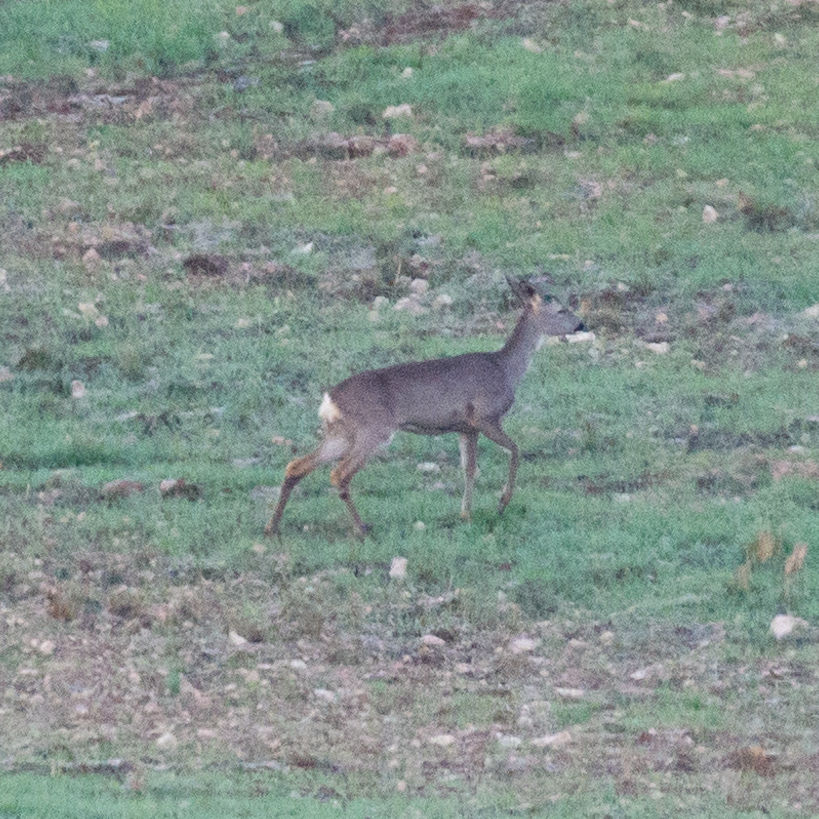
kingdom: Animalia
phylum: Chordata
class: Mammalia
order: Artiodactyla
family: Cervidae
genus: Capreolus
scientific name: Capreolus capreolus
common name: Western roe deer
